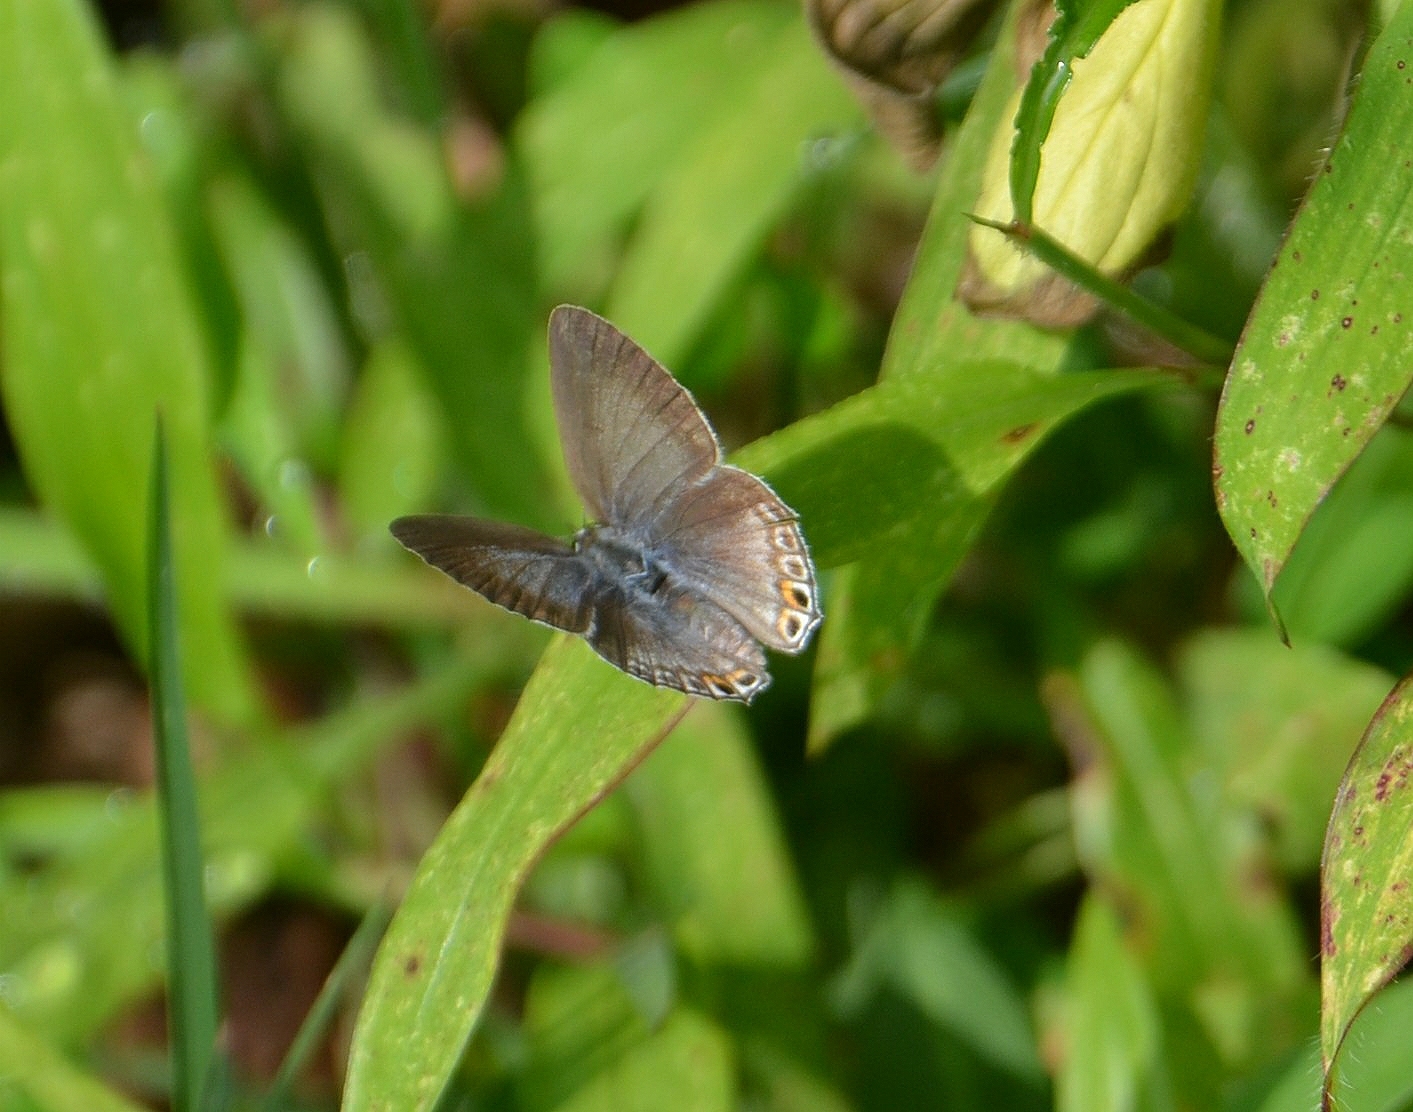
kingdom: Animalia
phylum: Arthropoda
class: Insecta
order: Lepidoptera
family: Lycaenidae
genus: Euchrysops
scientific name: Euchrysops cnejus
